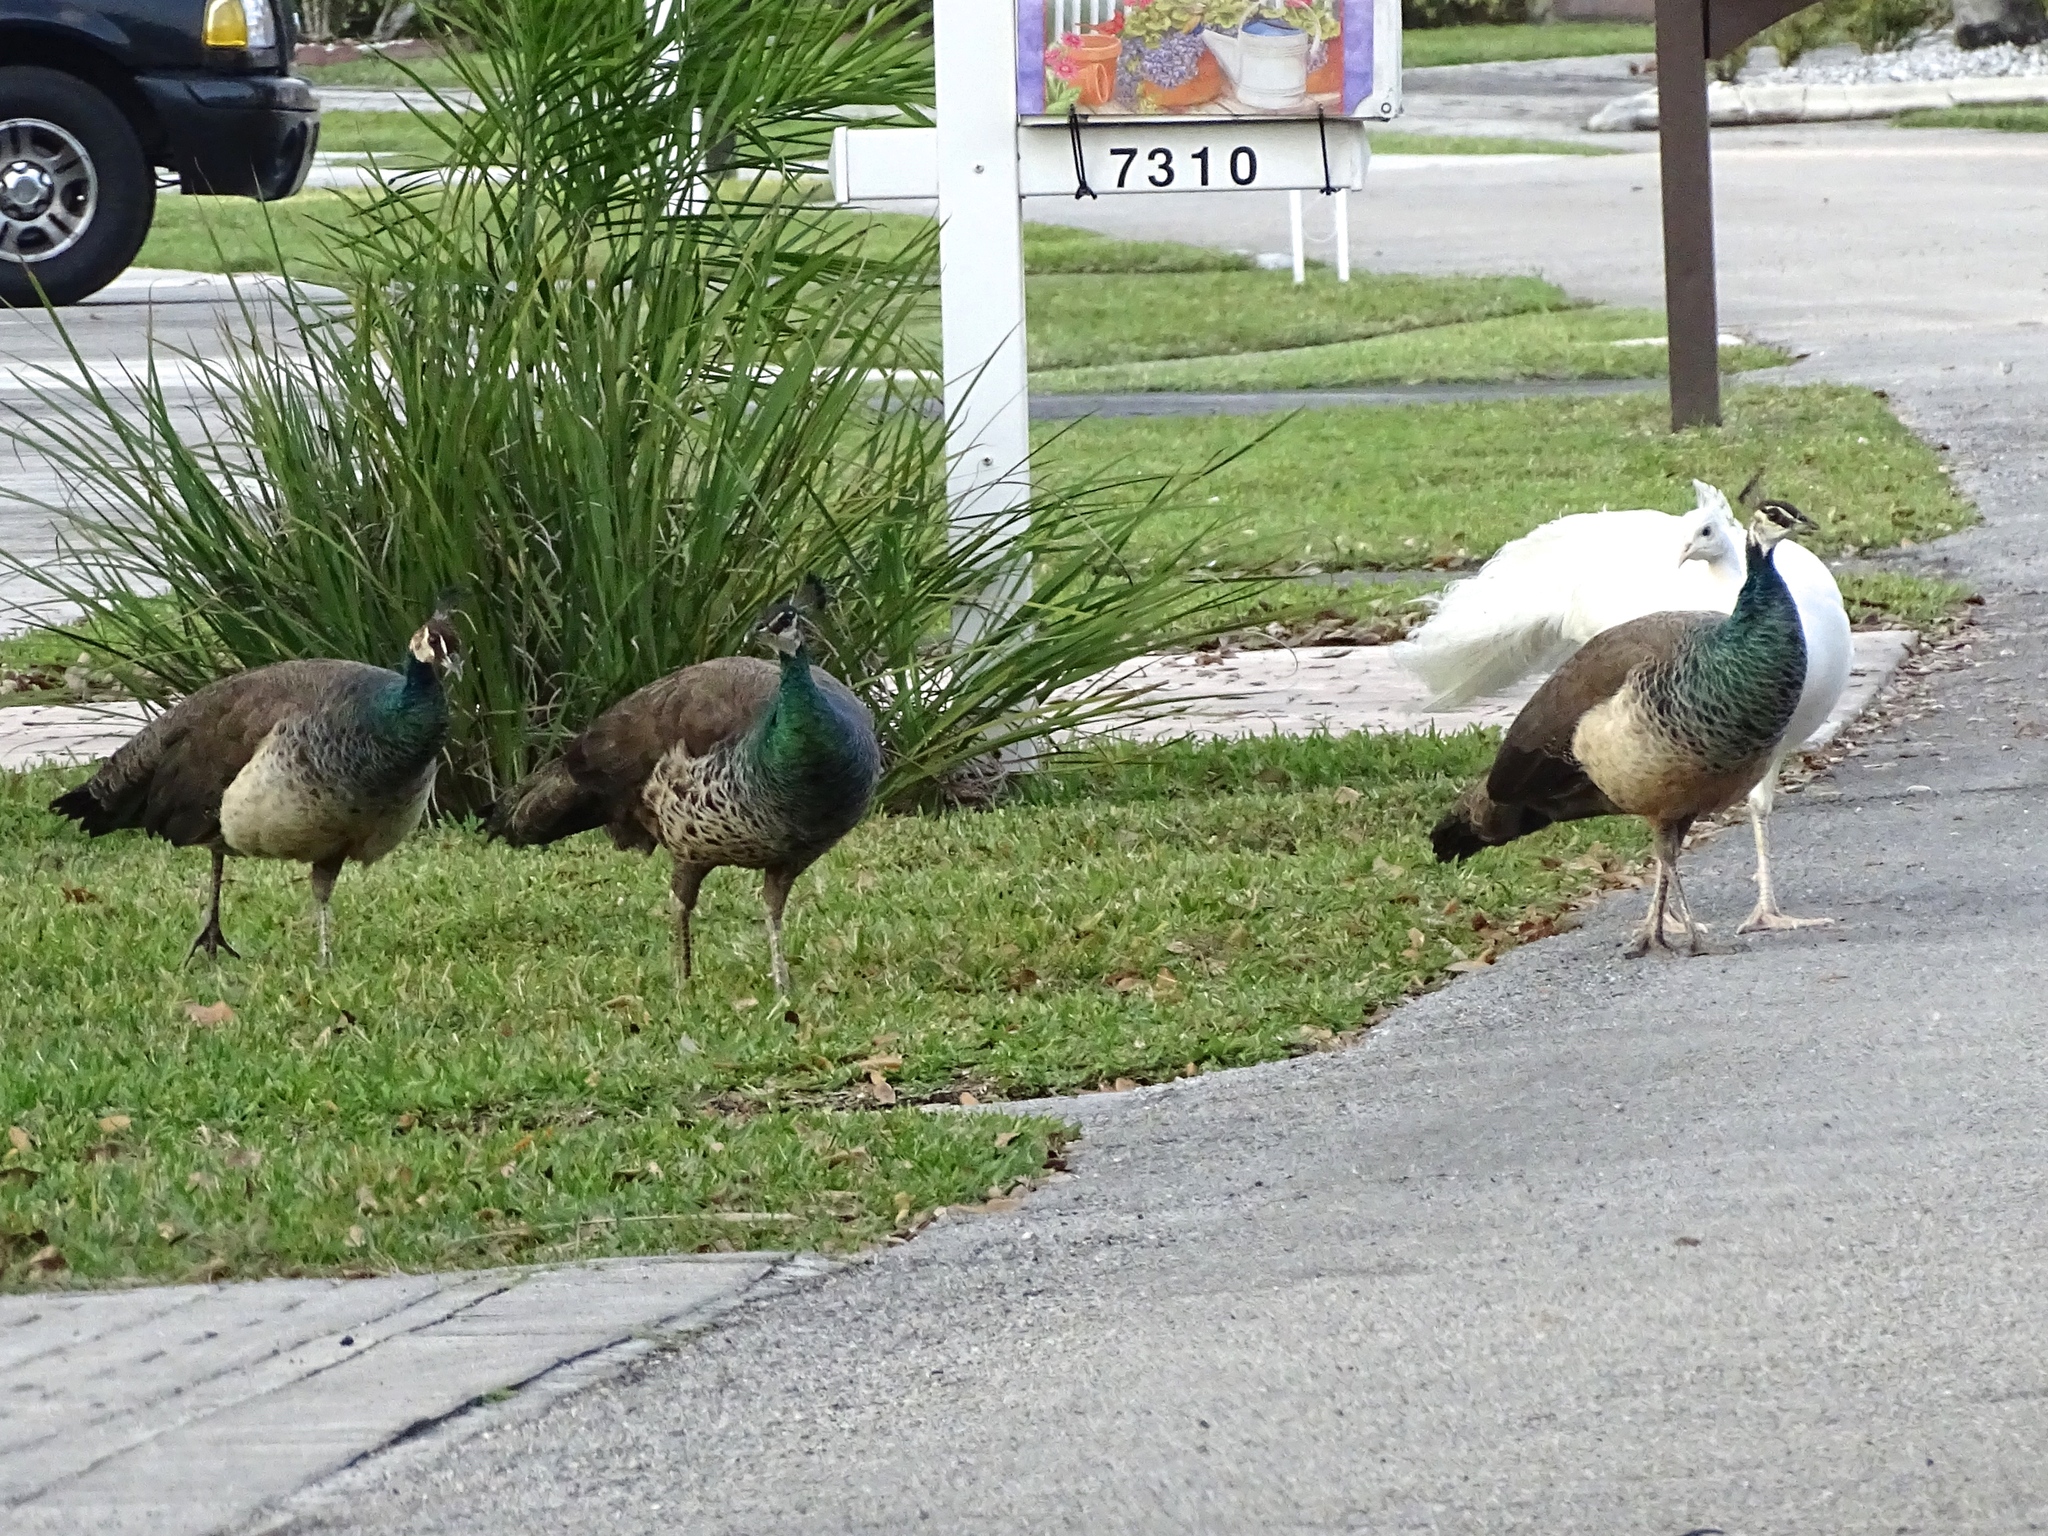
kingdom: Animalia
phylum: Chordata
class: Aves
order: Galliformes
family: Phasianidae
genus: Pavo
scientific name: Pavo cristatus
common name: Indian peafowl
